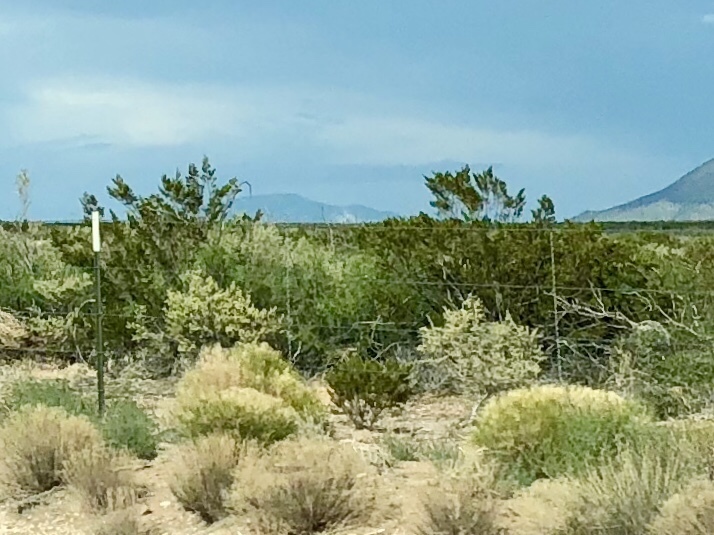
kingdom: Plantae
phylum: Tracheophyta
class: Magnoliopsida
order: Zygophyllales
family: Zygophyllaceae
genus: Larrea
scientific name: Larrea tridentata
